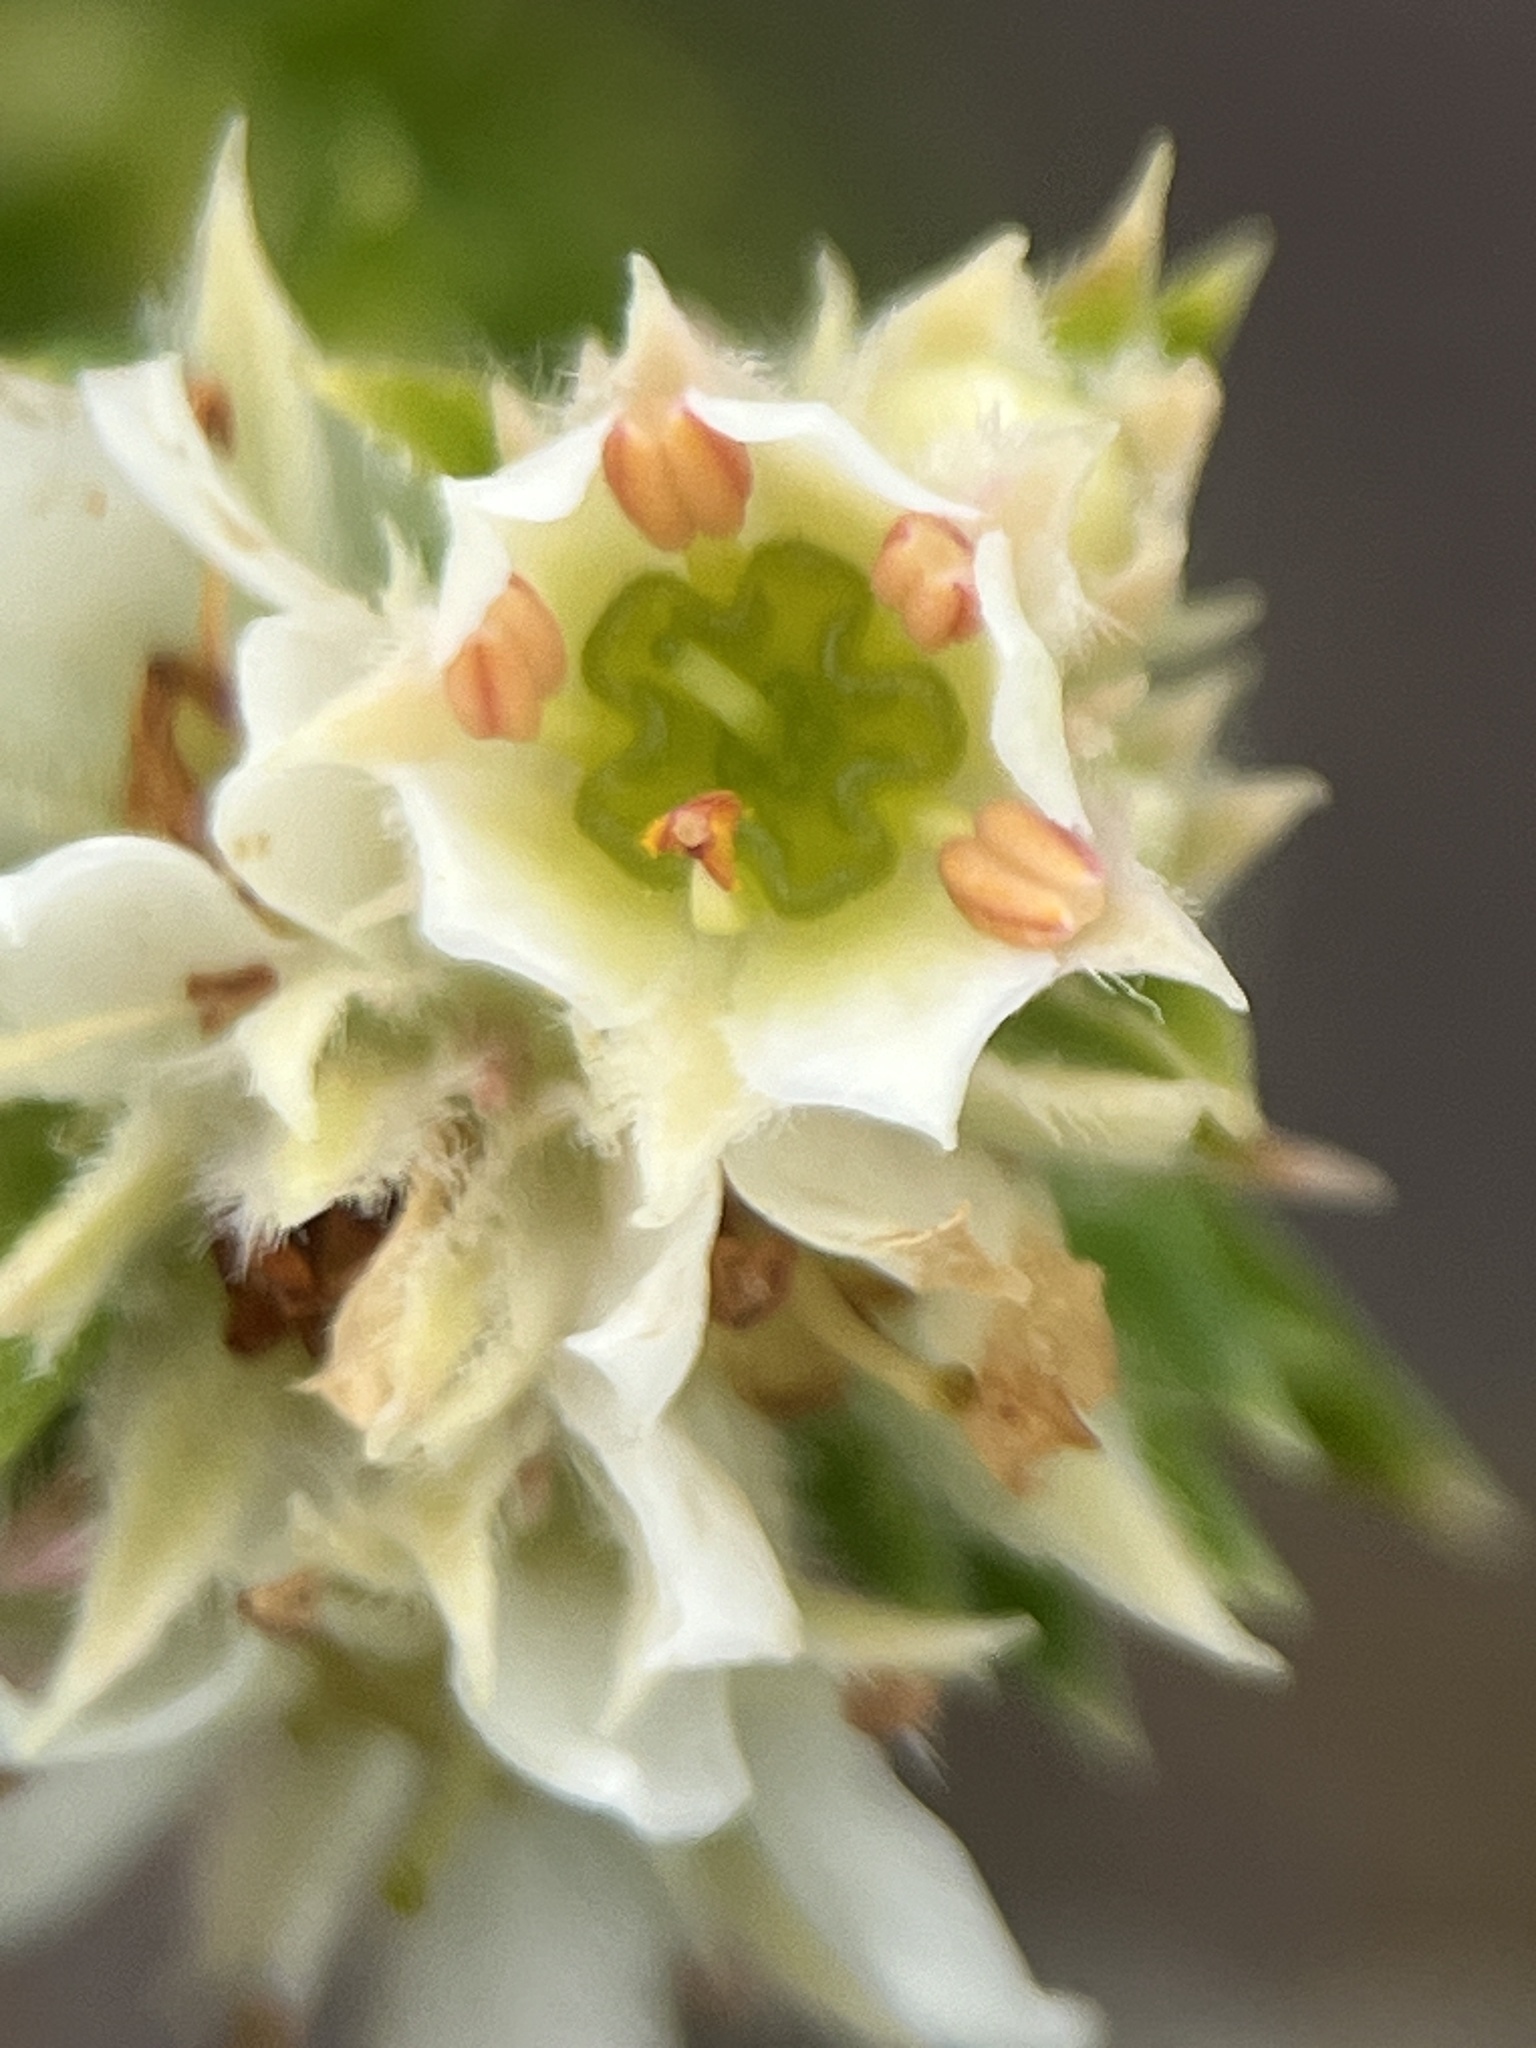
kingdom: Plantae
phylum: Tracheophyta
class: Magnoliopsida
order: Sapindales
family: Rutaceae
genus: Diosma
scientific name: Diosma arenicola
